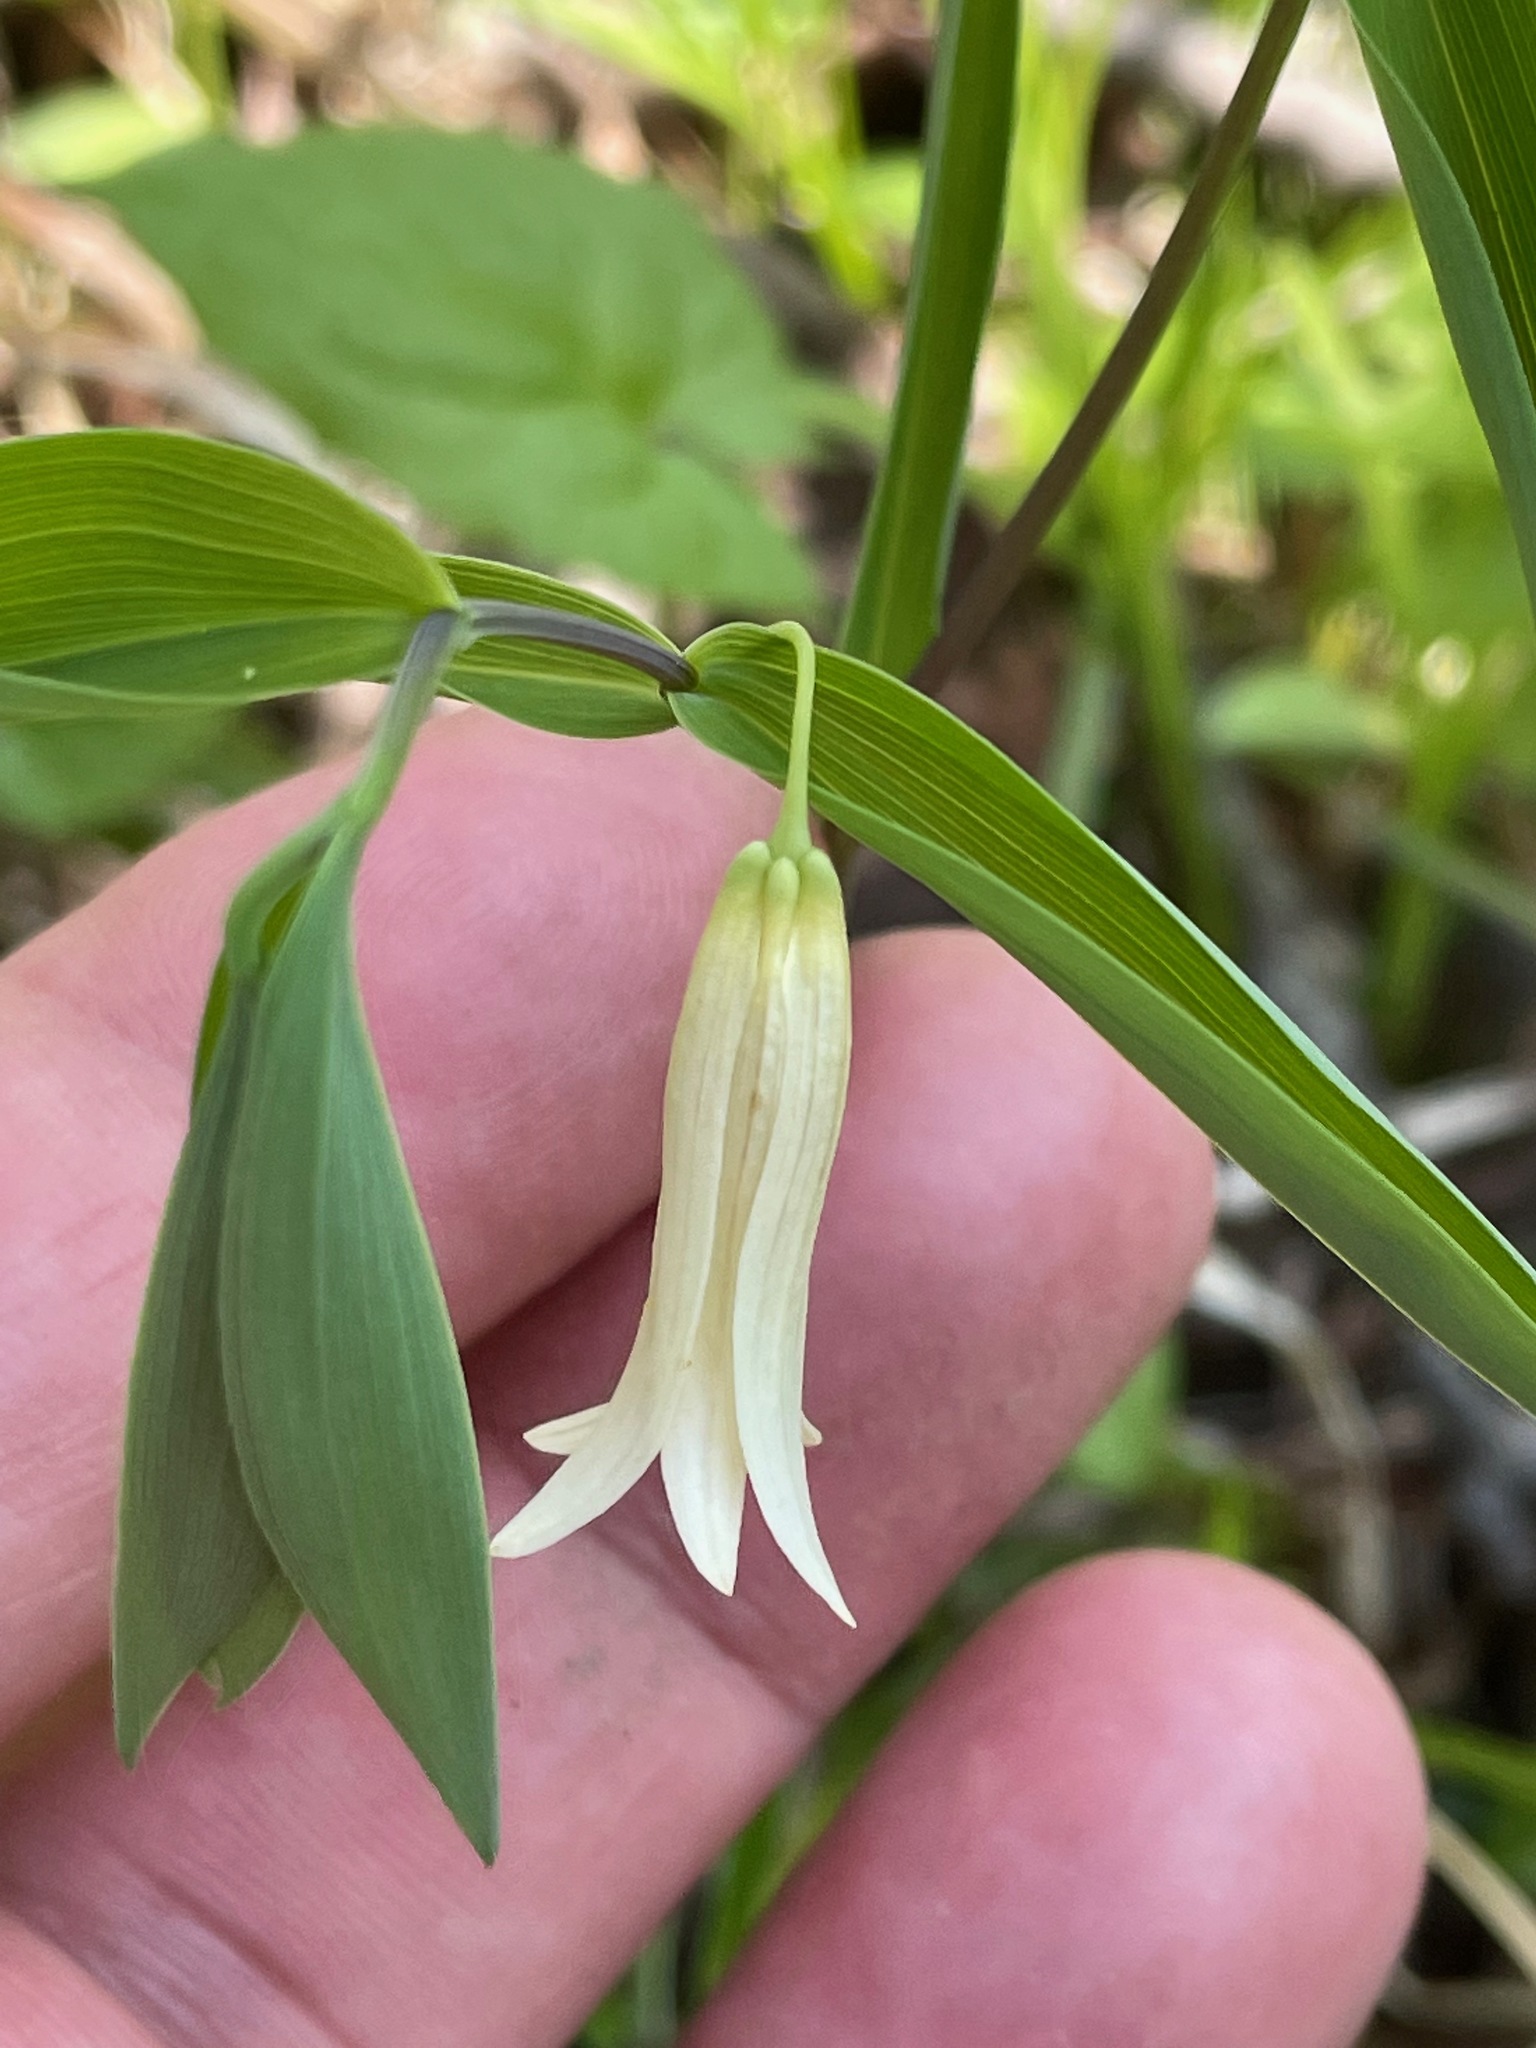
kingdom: Plantae
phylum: Tracheophyta
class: Liliopsida
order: Liliales
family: Colchicaceae
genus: Uvularia
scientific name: Uvularia sessilifolia
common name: Straw-lily
